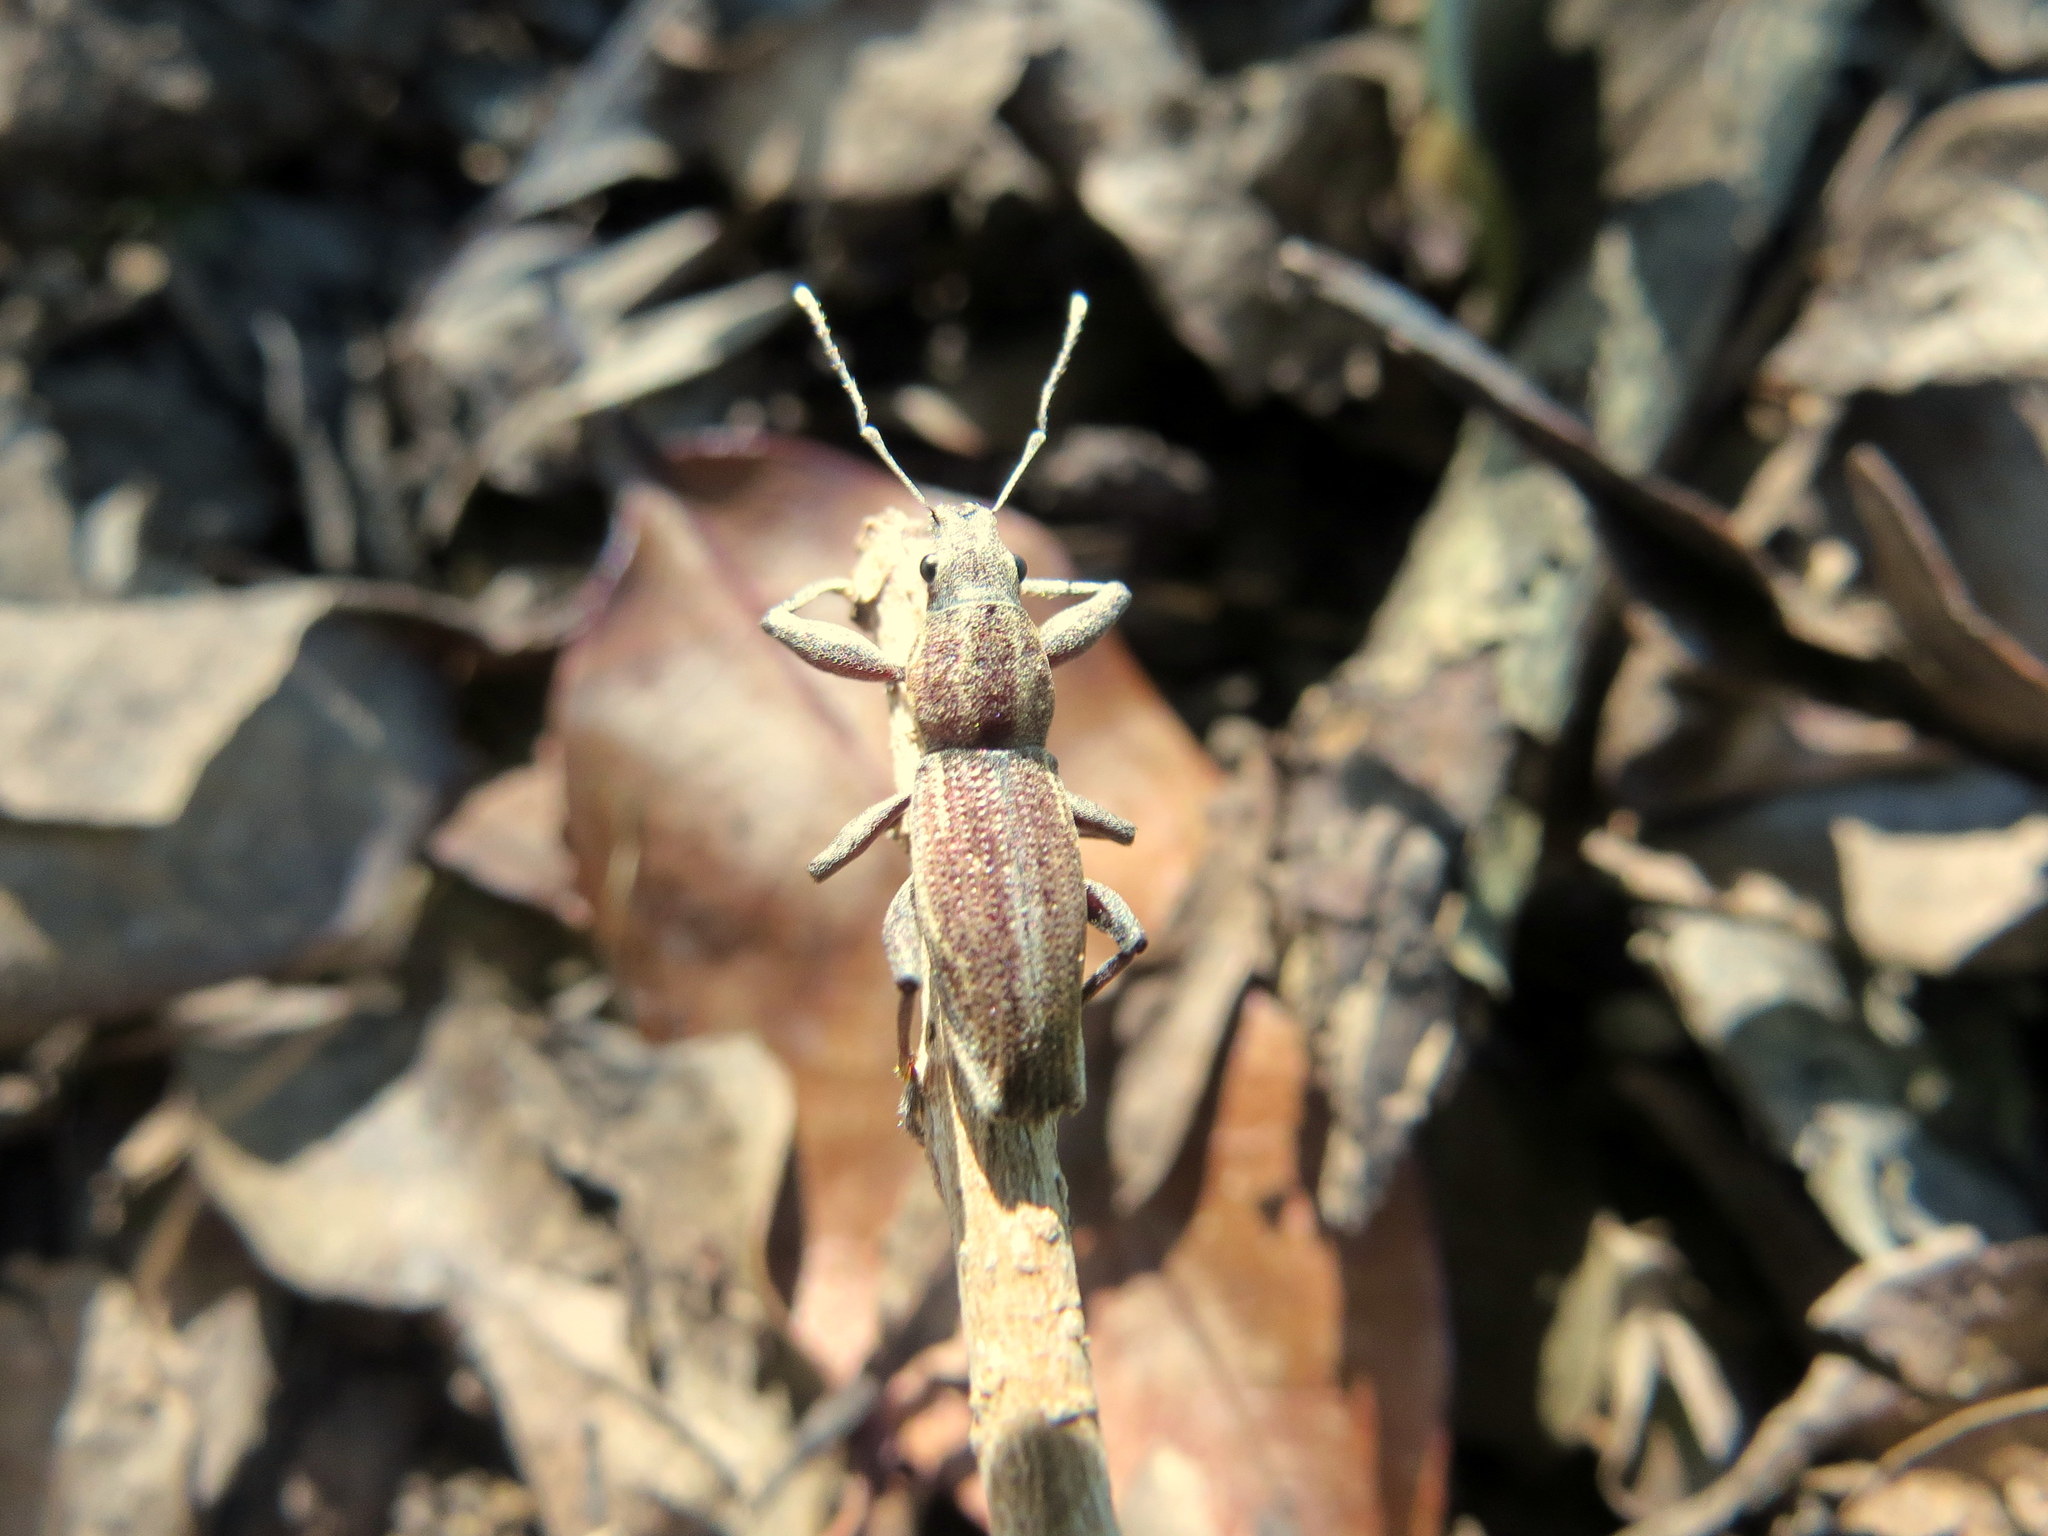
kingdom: Animalia
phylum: Arthropoda
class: Insecta
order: Coleoptera
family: Curculionidae
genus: Naupactus
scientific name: Naupactus xanthographus
